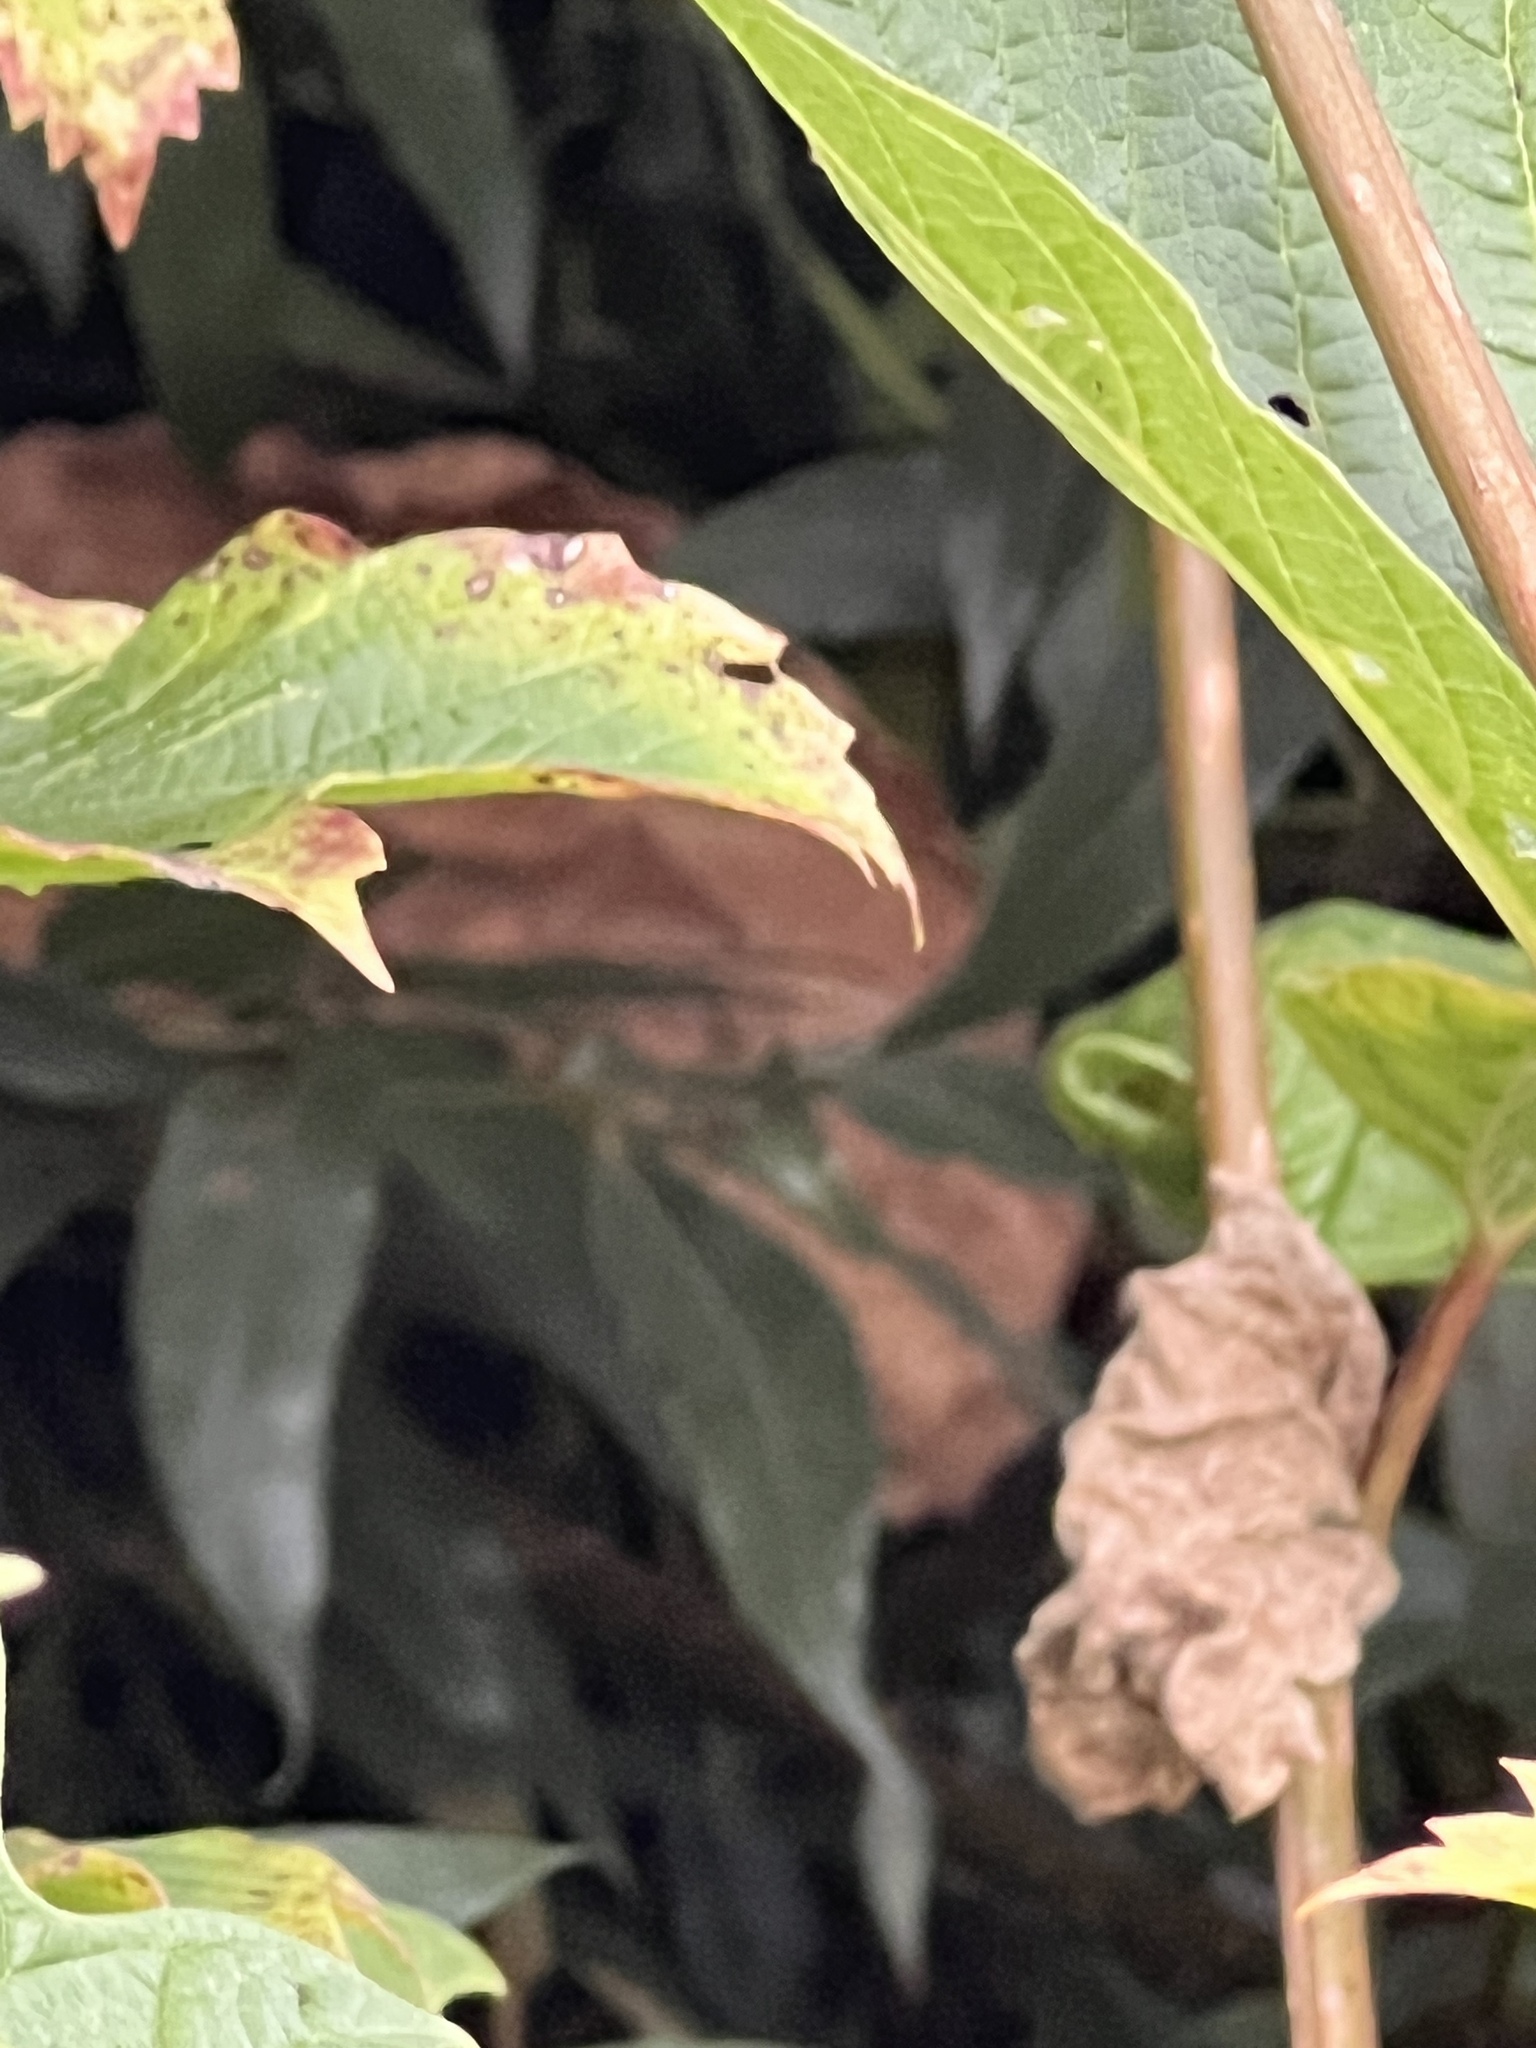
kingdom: Animalia
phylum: Arthropoda
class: Insecta
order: Hymenoptera
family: Vespidae
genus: Vespa
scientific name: Vespa velutina
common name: Asian hornet
